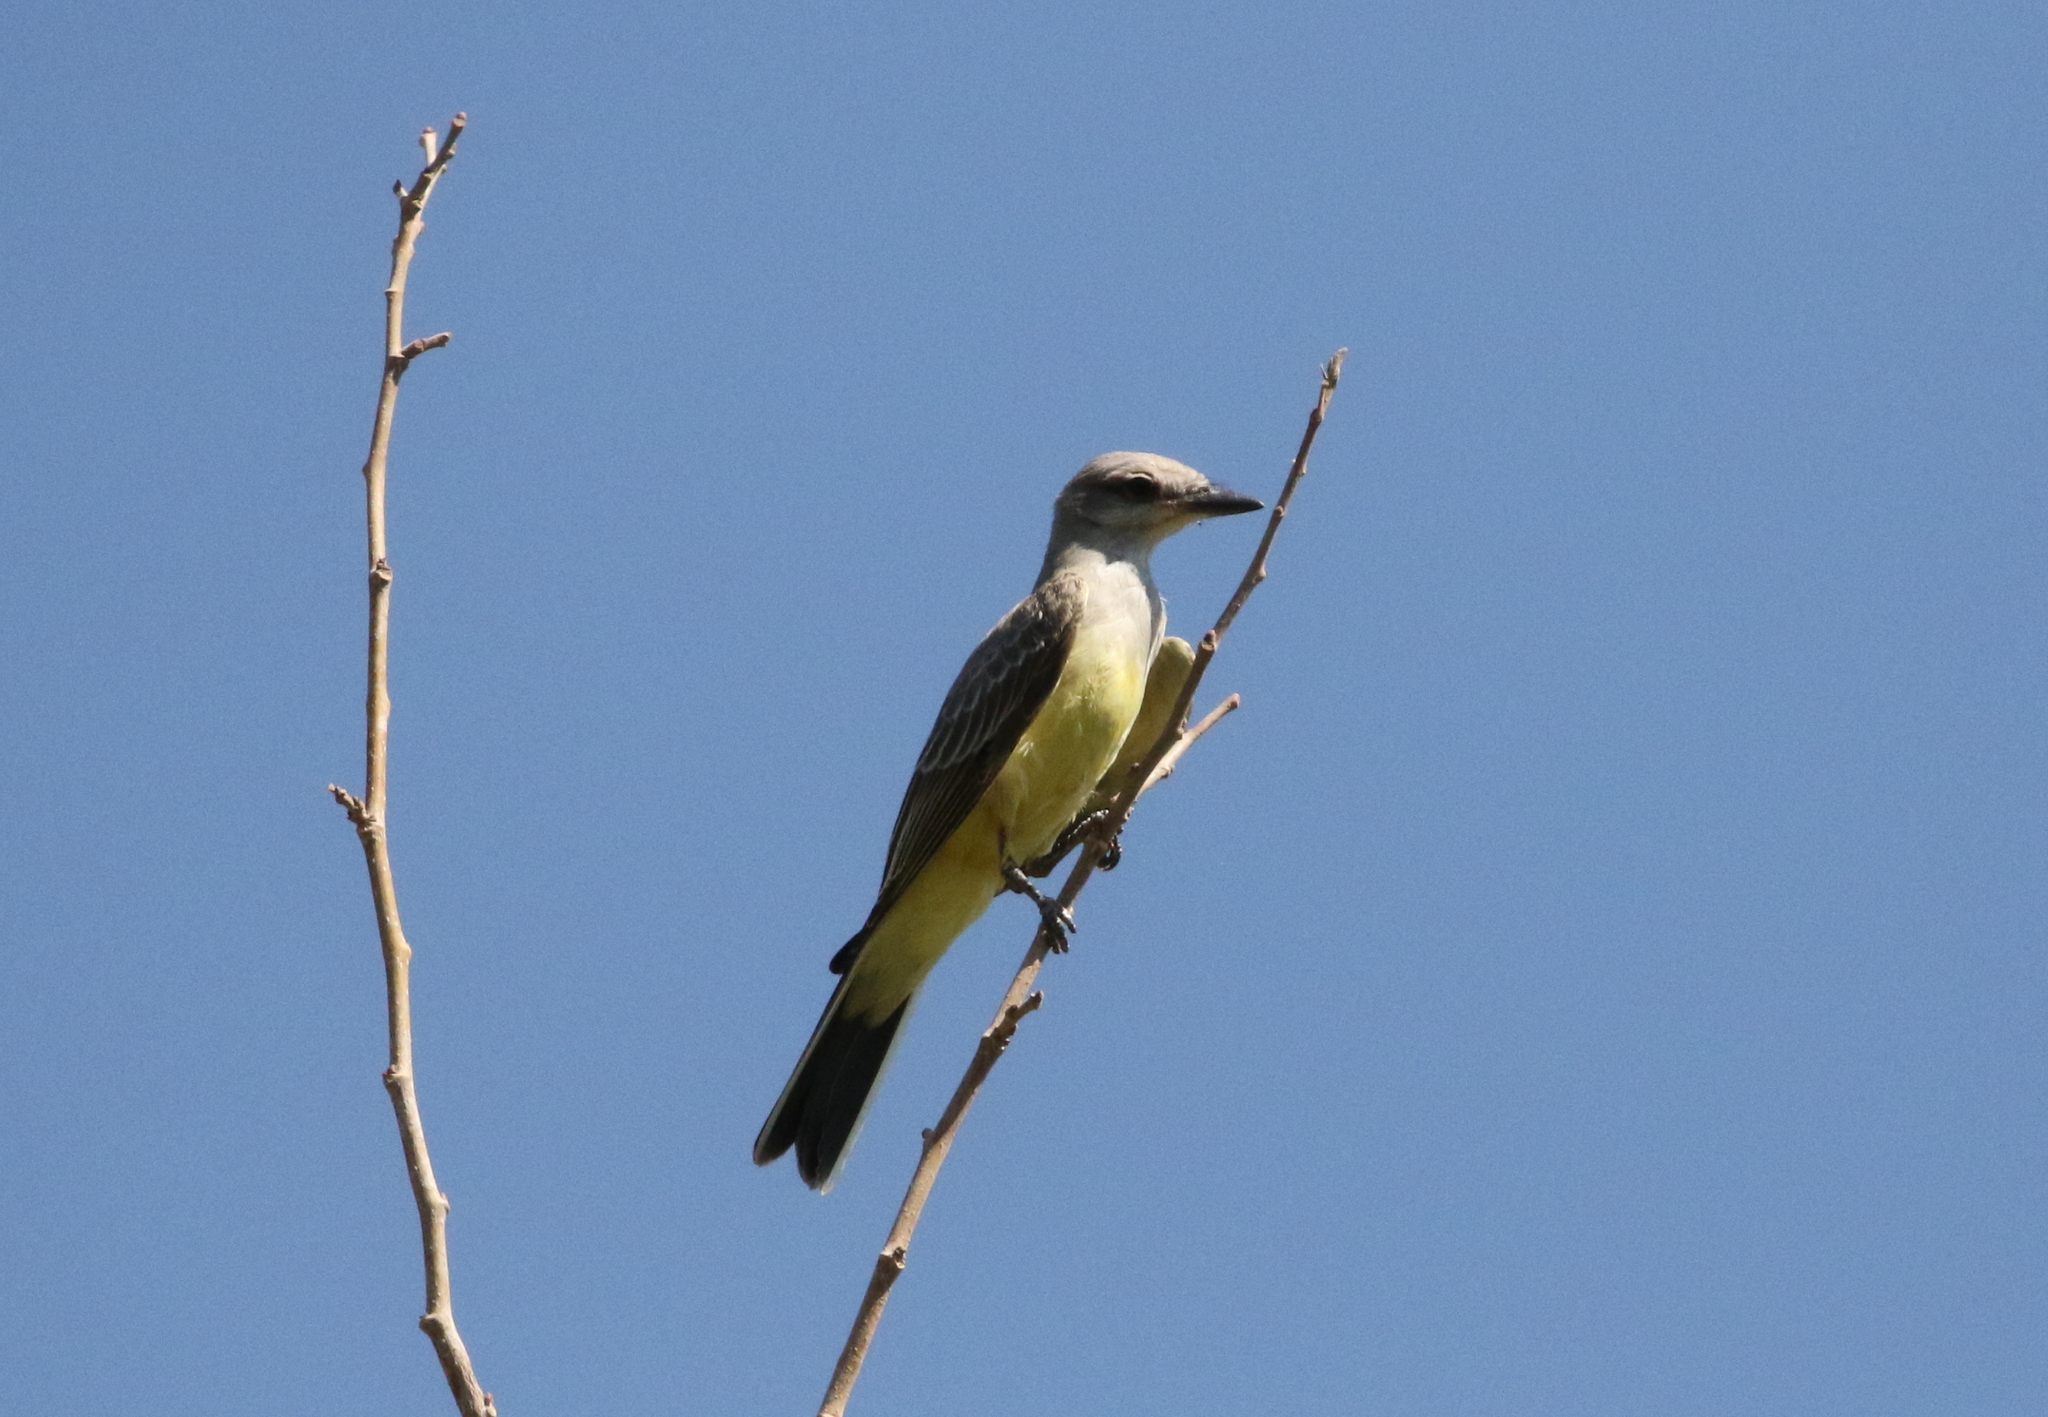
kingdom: Animalia
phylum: Chordata
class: Aves
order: Passeriformes
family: Tyrannidae
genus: Tyrannus
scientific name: Tyrannus verticalis
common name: Western kingbird
